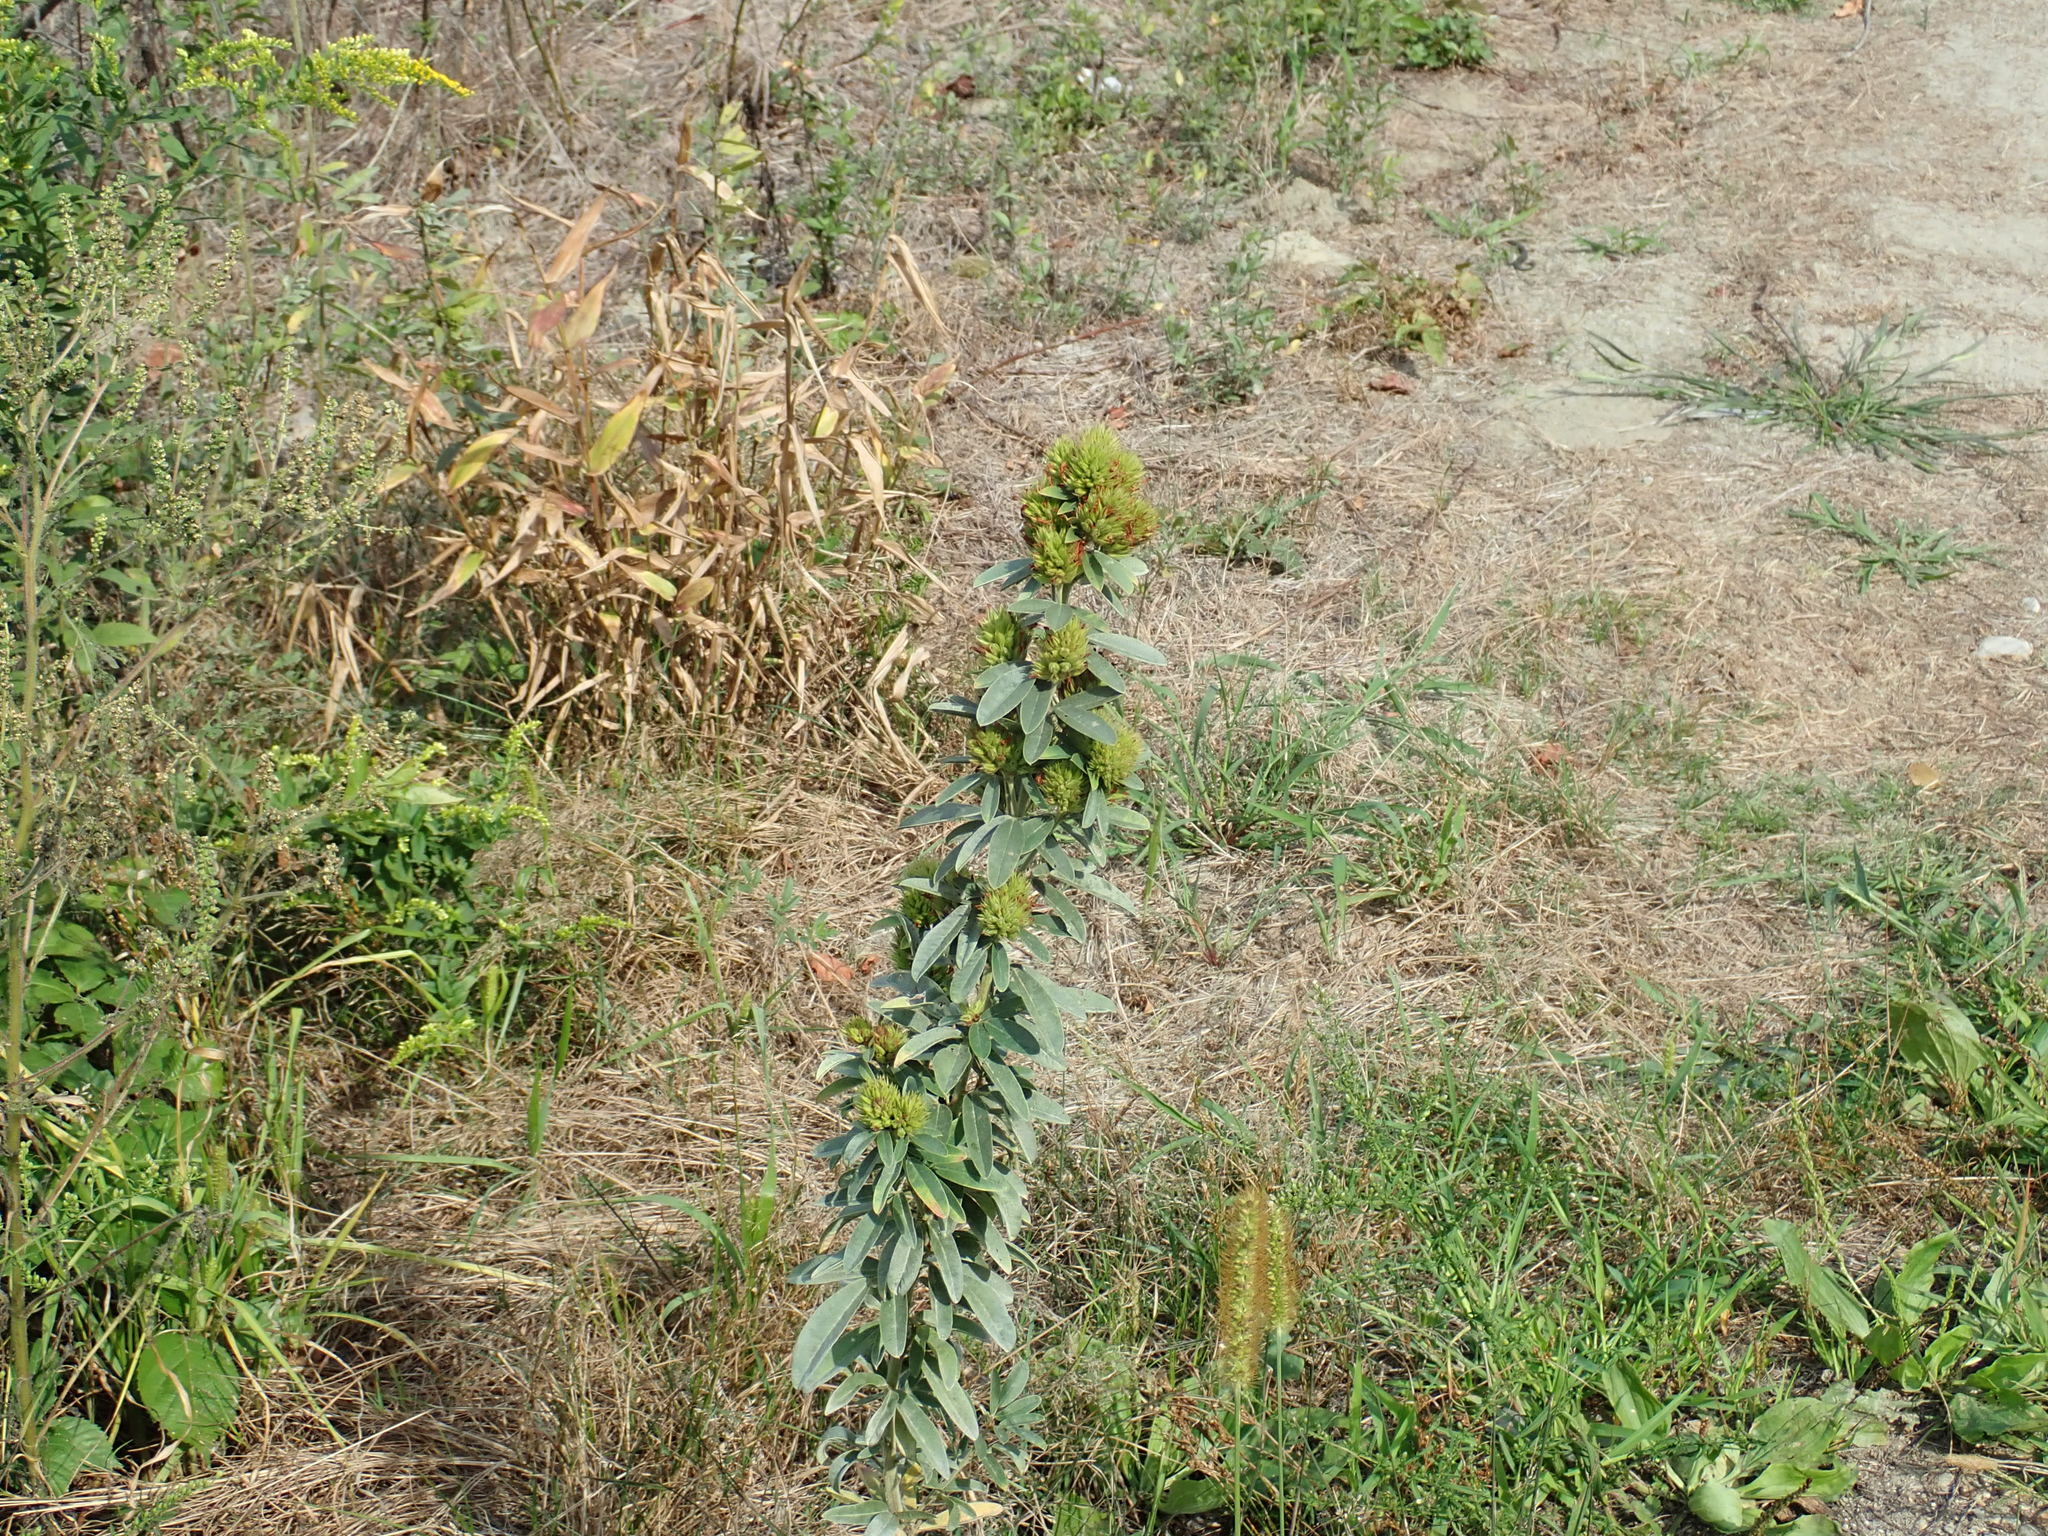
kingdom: Plantae
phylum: Tracheophyta
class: Magnoliopsida
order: Fabales
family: Fabaceae
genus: Lespedeza
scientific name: Lespedeza capitata
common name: Dusty clover
